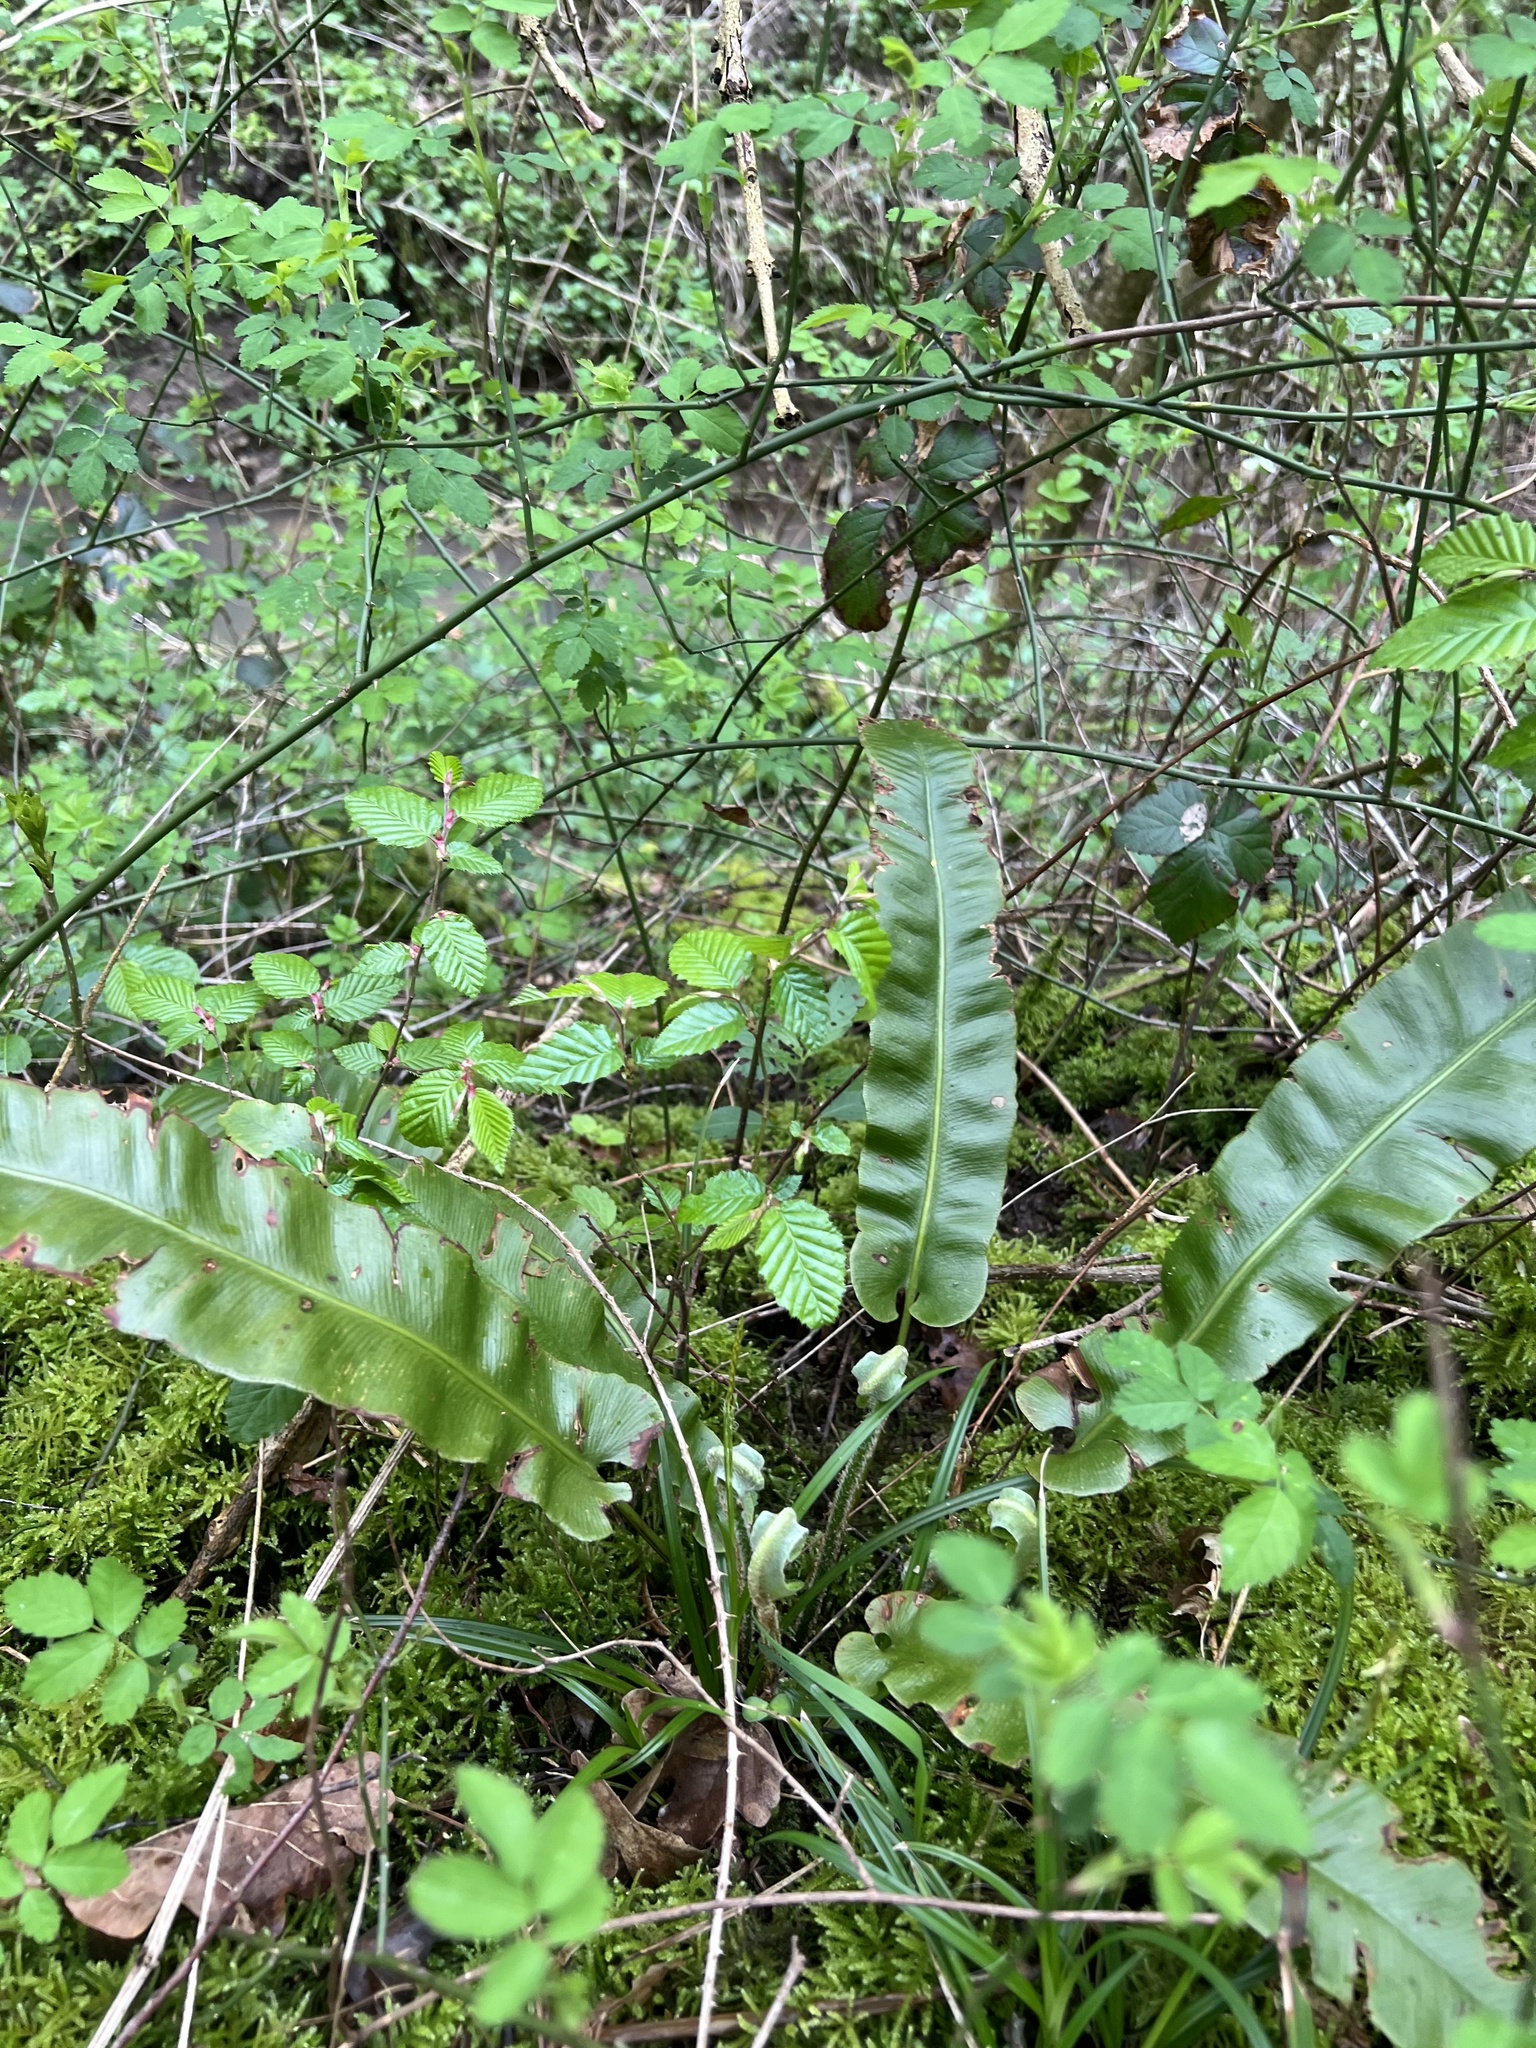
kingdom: Plantae
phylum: Tracheophyta
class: Polypodiopsida
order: Polypodiales
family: Aspleniaceae
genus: Asplenium
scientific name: Asplenium scolopendrium
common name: Hart's-tongue fern
